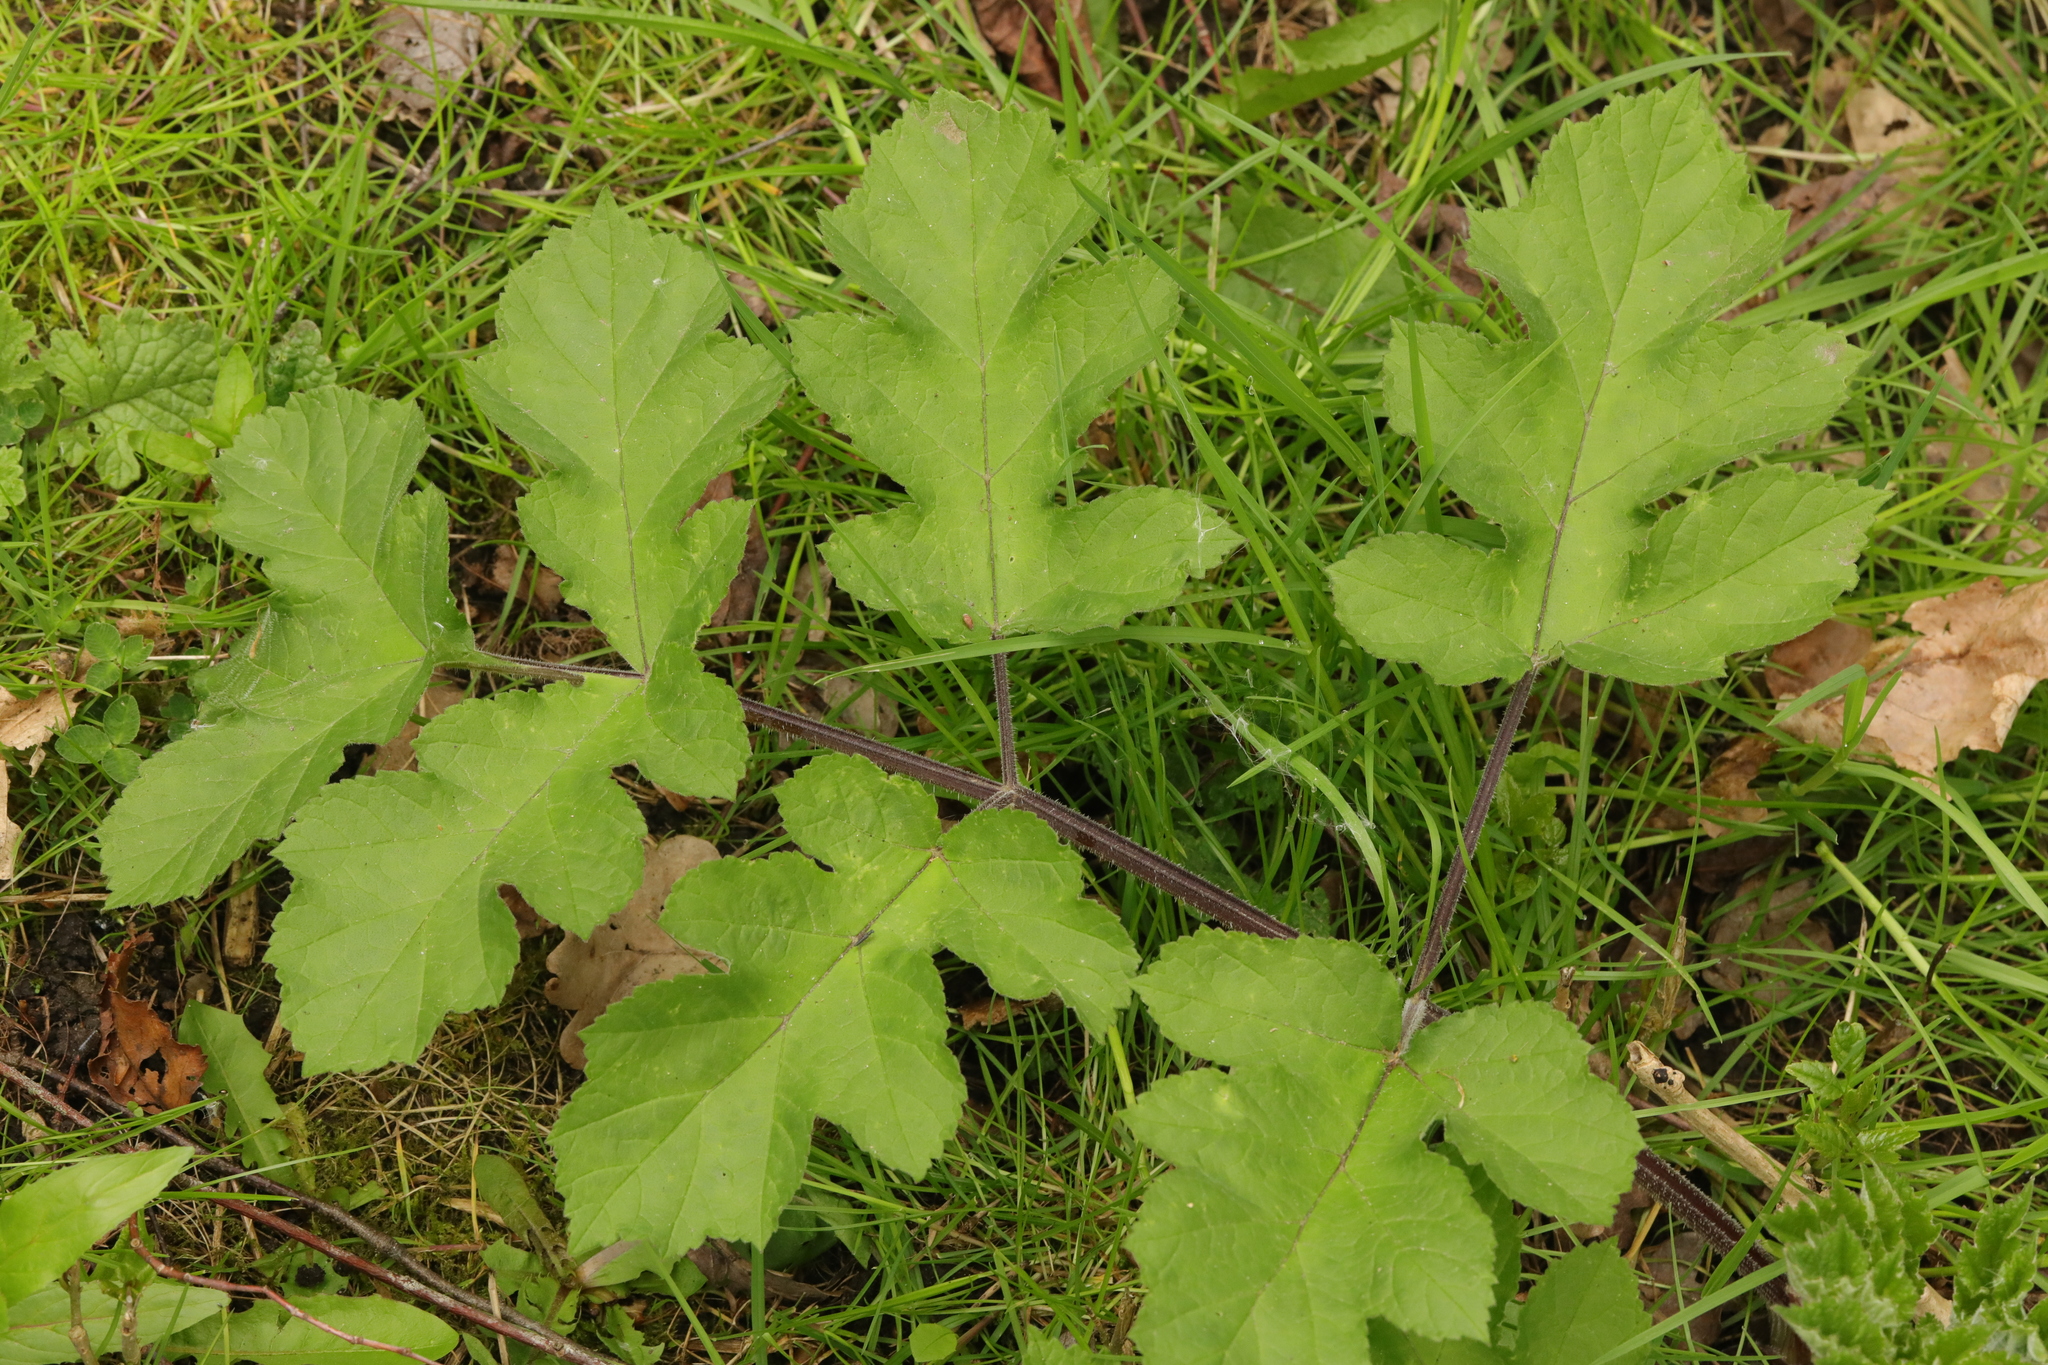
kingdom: Plantae
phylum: Tracheophyta
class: Magnoliopsida
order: Apiales
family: Apiaceae
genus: Heracleum
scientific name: Heracleum sphondylium
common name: Hogweed
